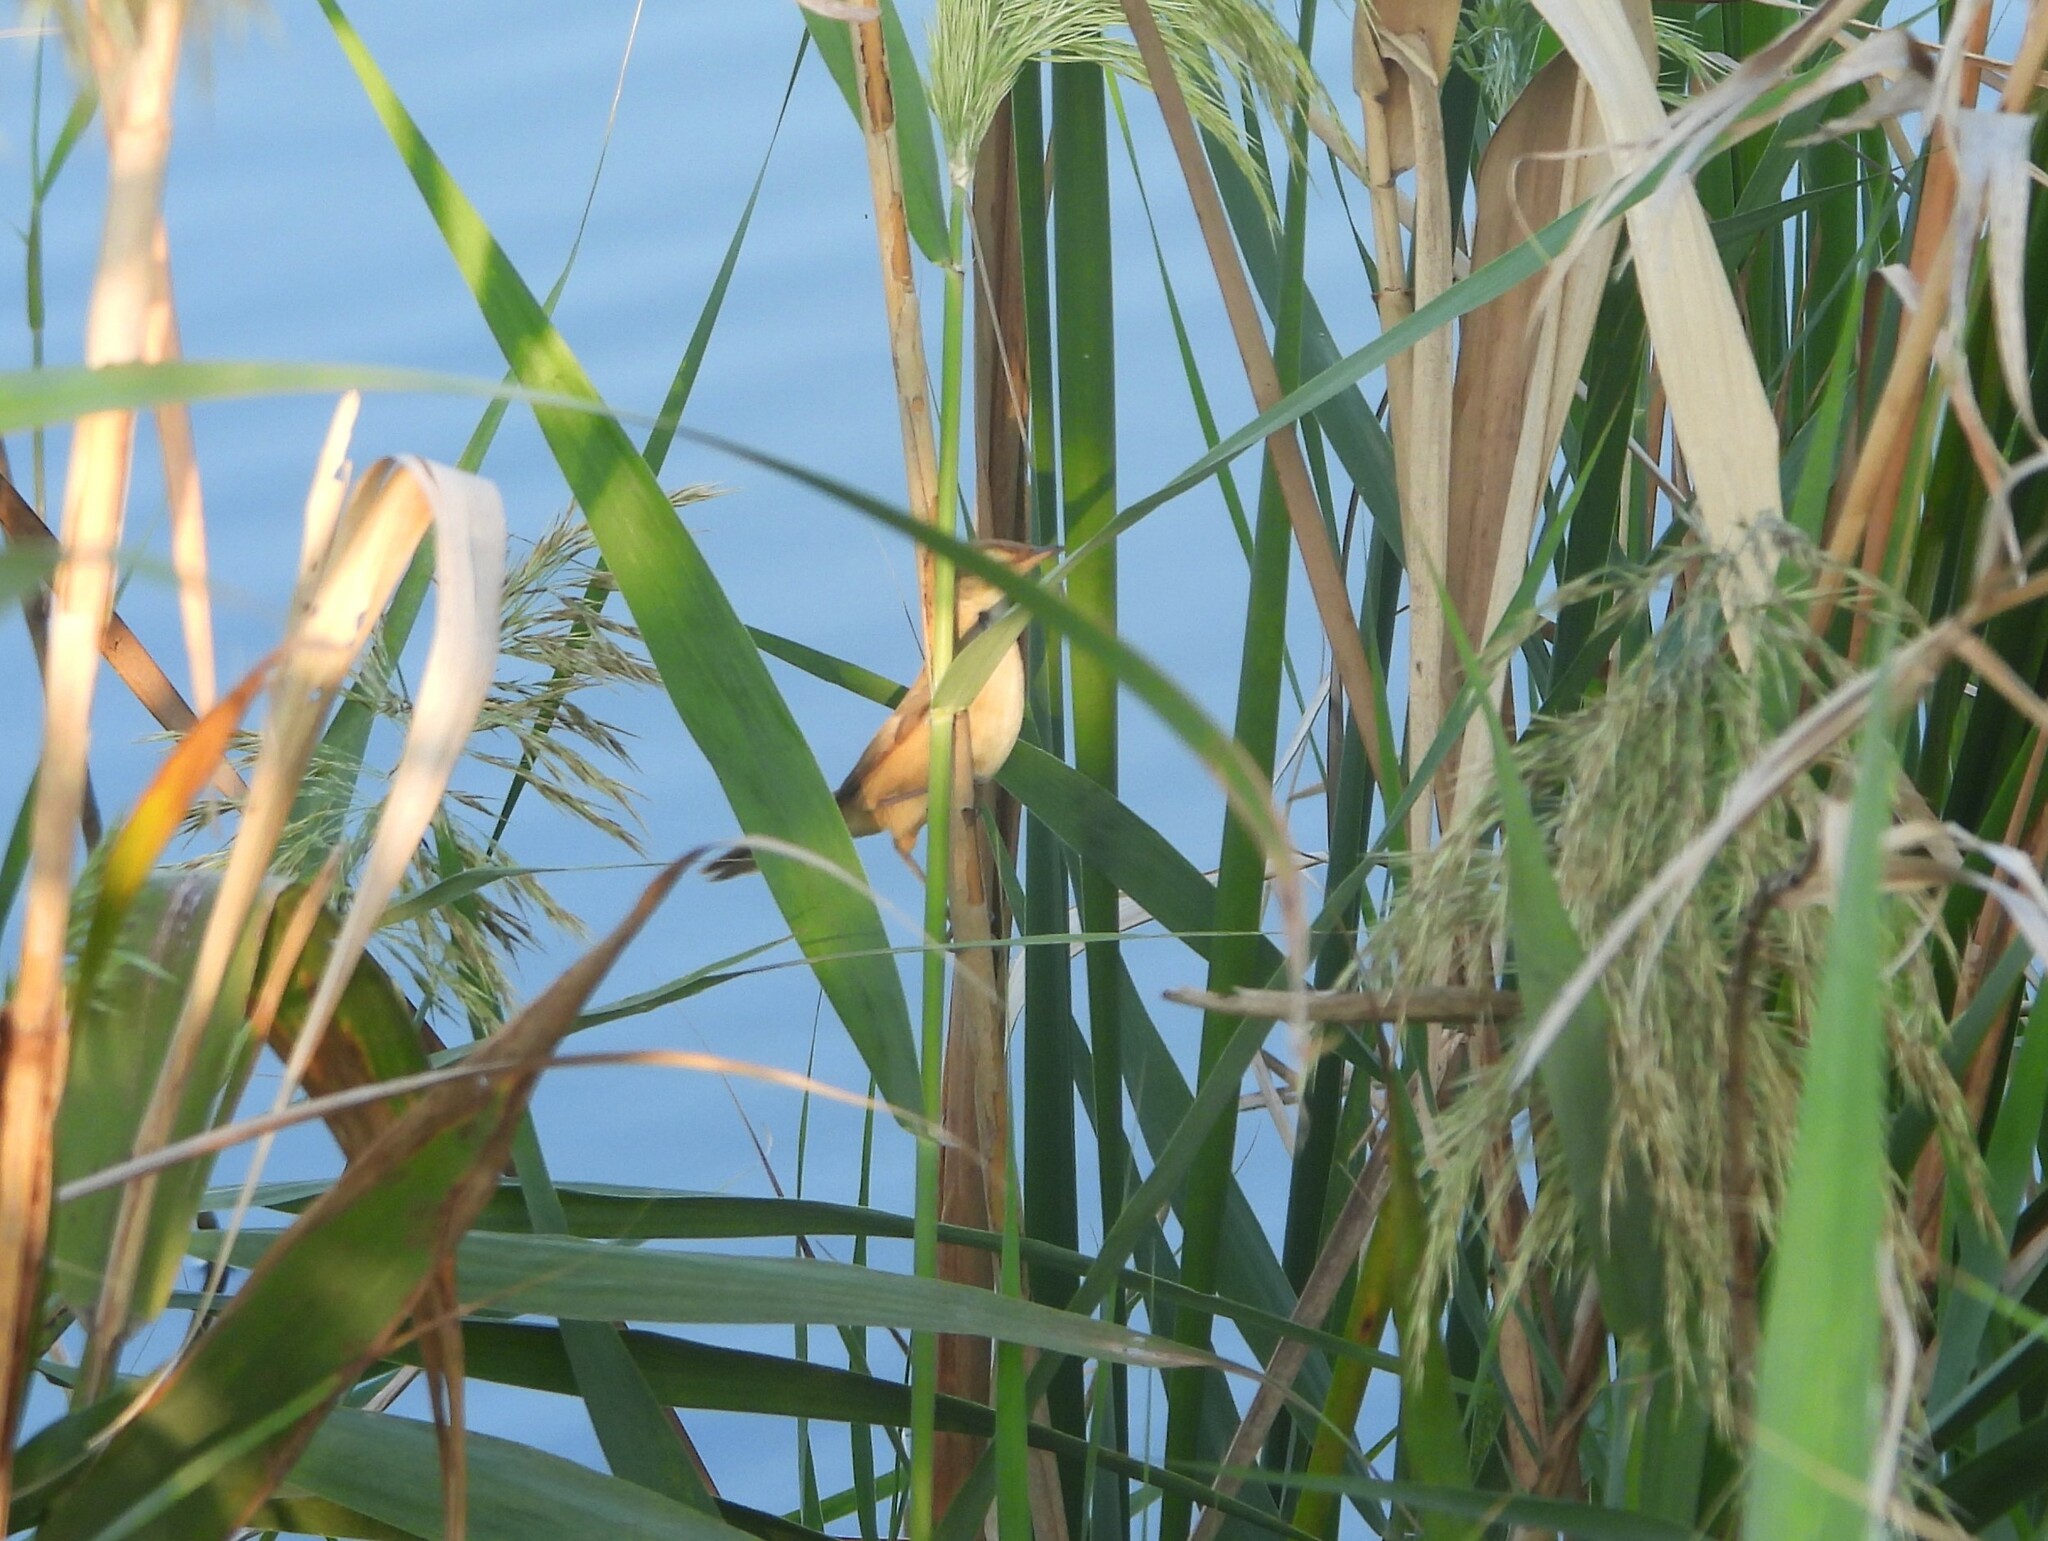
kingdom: Animalia
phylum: Chordata
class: Aves
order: Passeriformes
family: Acrocephalidae
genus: Acrocephalus
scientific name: Acrocephalus bistrigiceps
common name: Black-browed reed warbler
